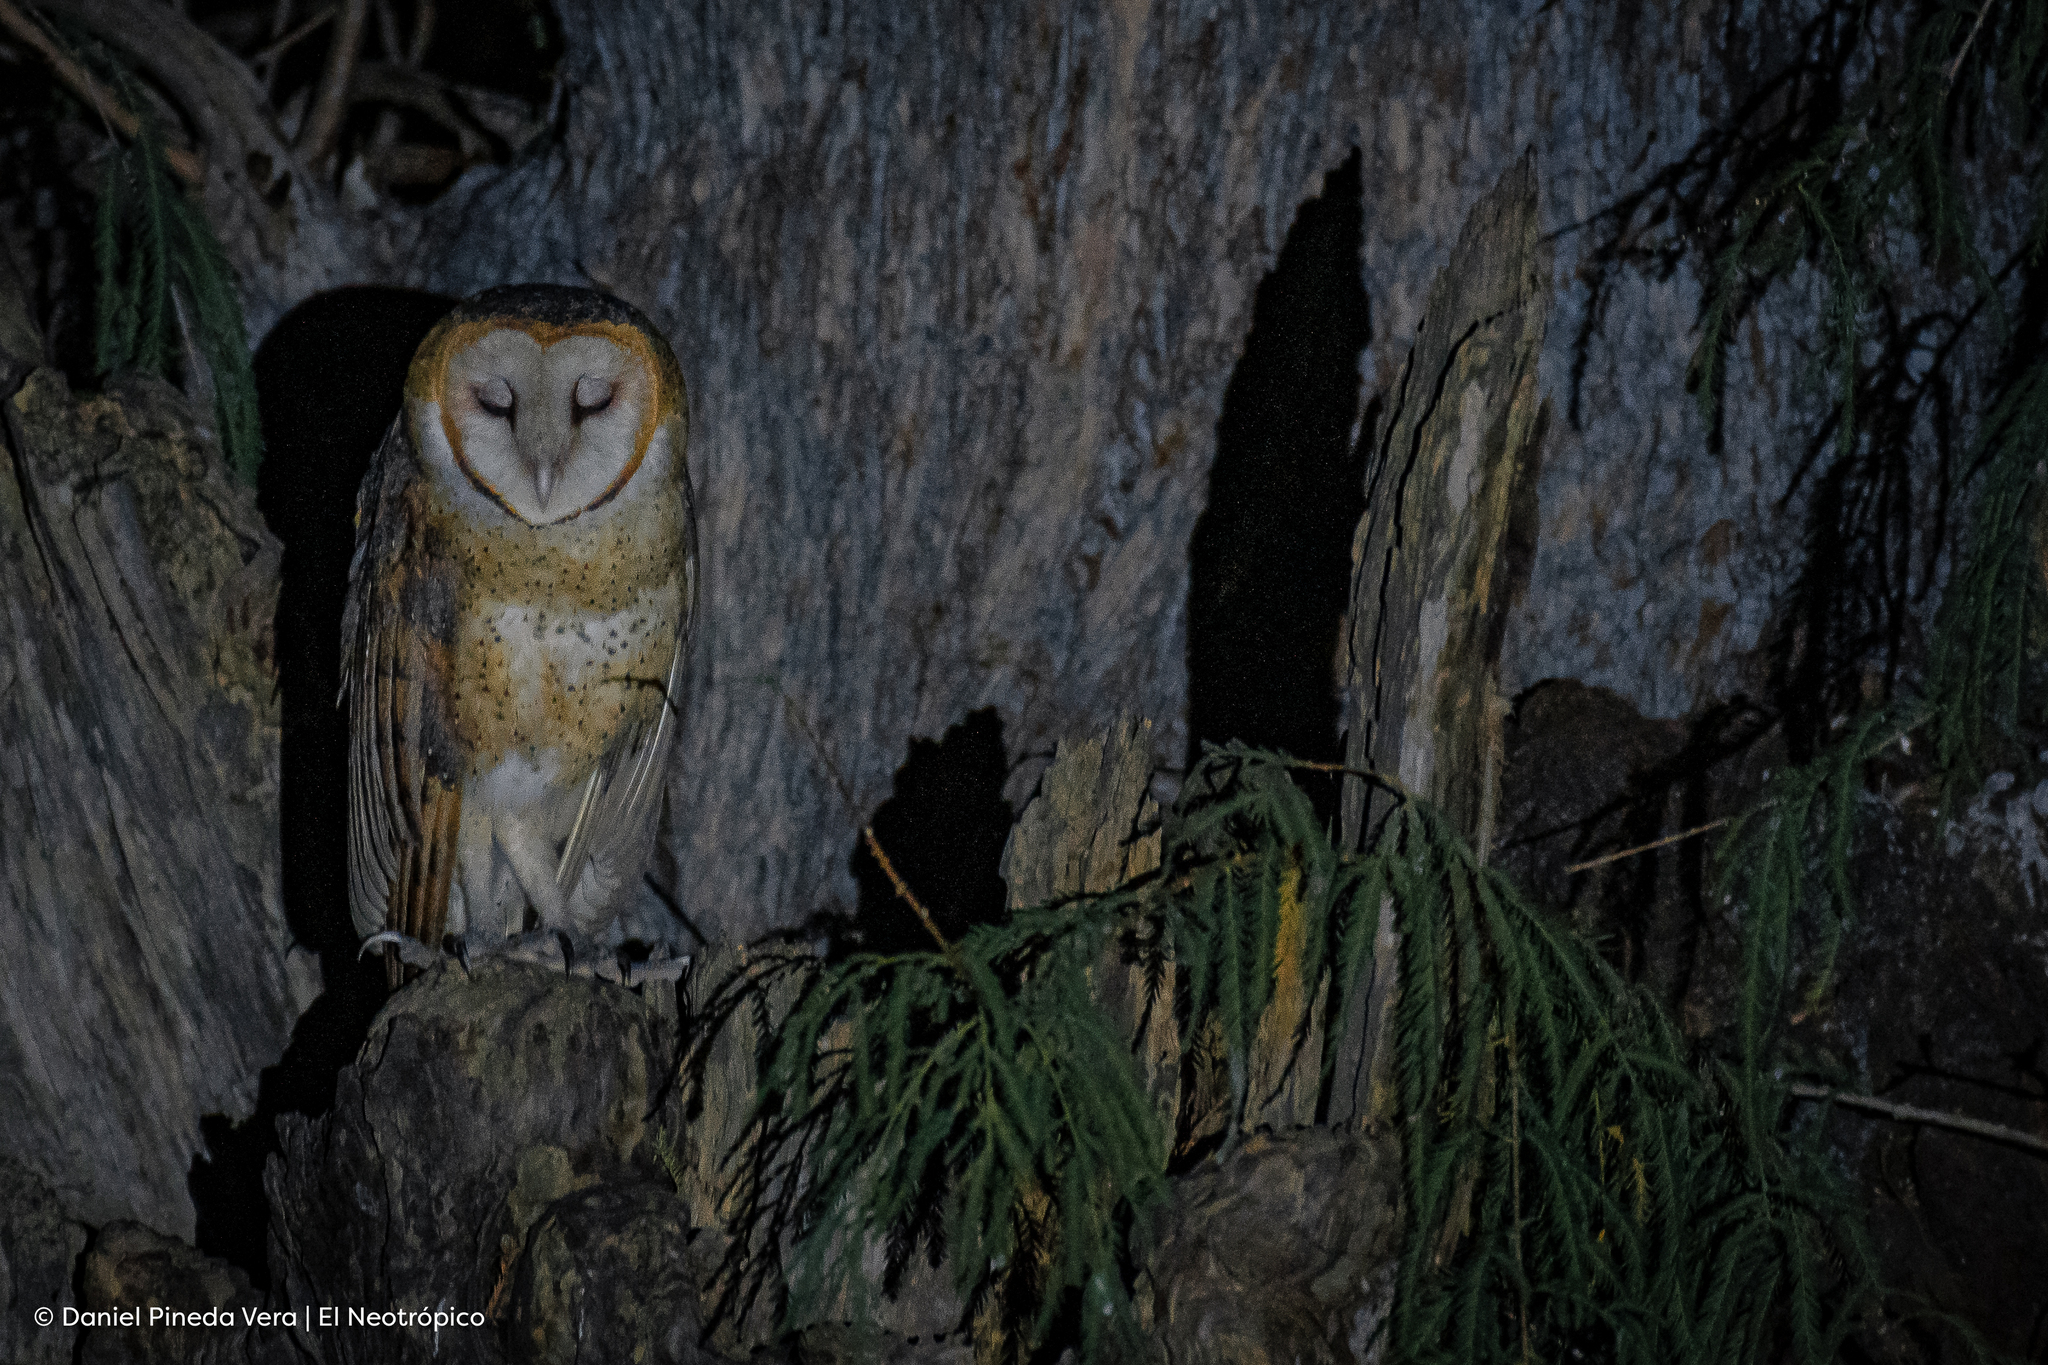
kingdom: Animalia
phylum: Chordata
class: Aves
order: Strigiformes
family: Tytonidae
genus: Tyto
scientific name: Tyto alba
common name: Barn owl
